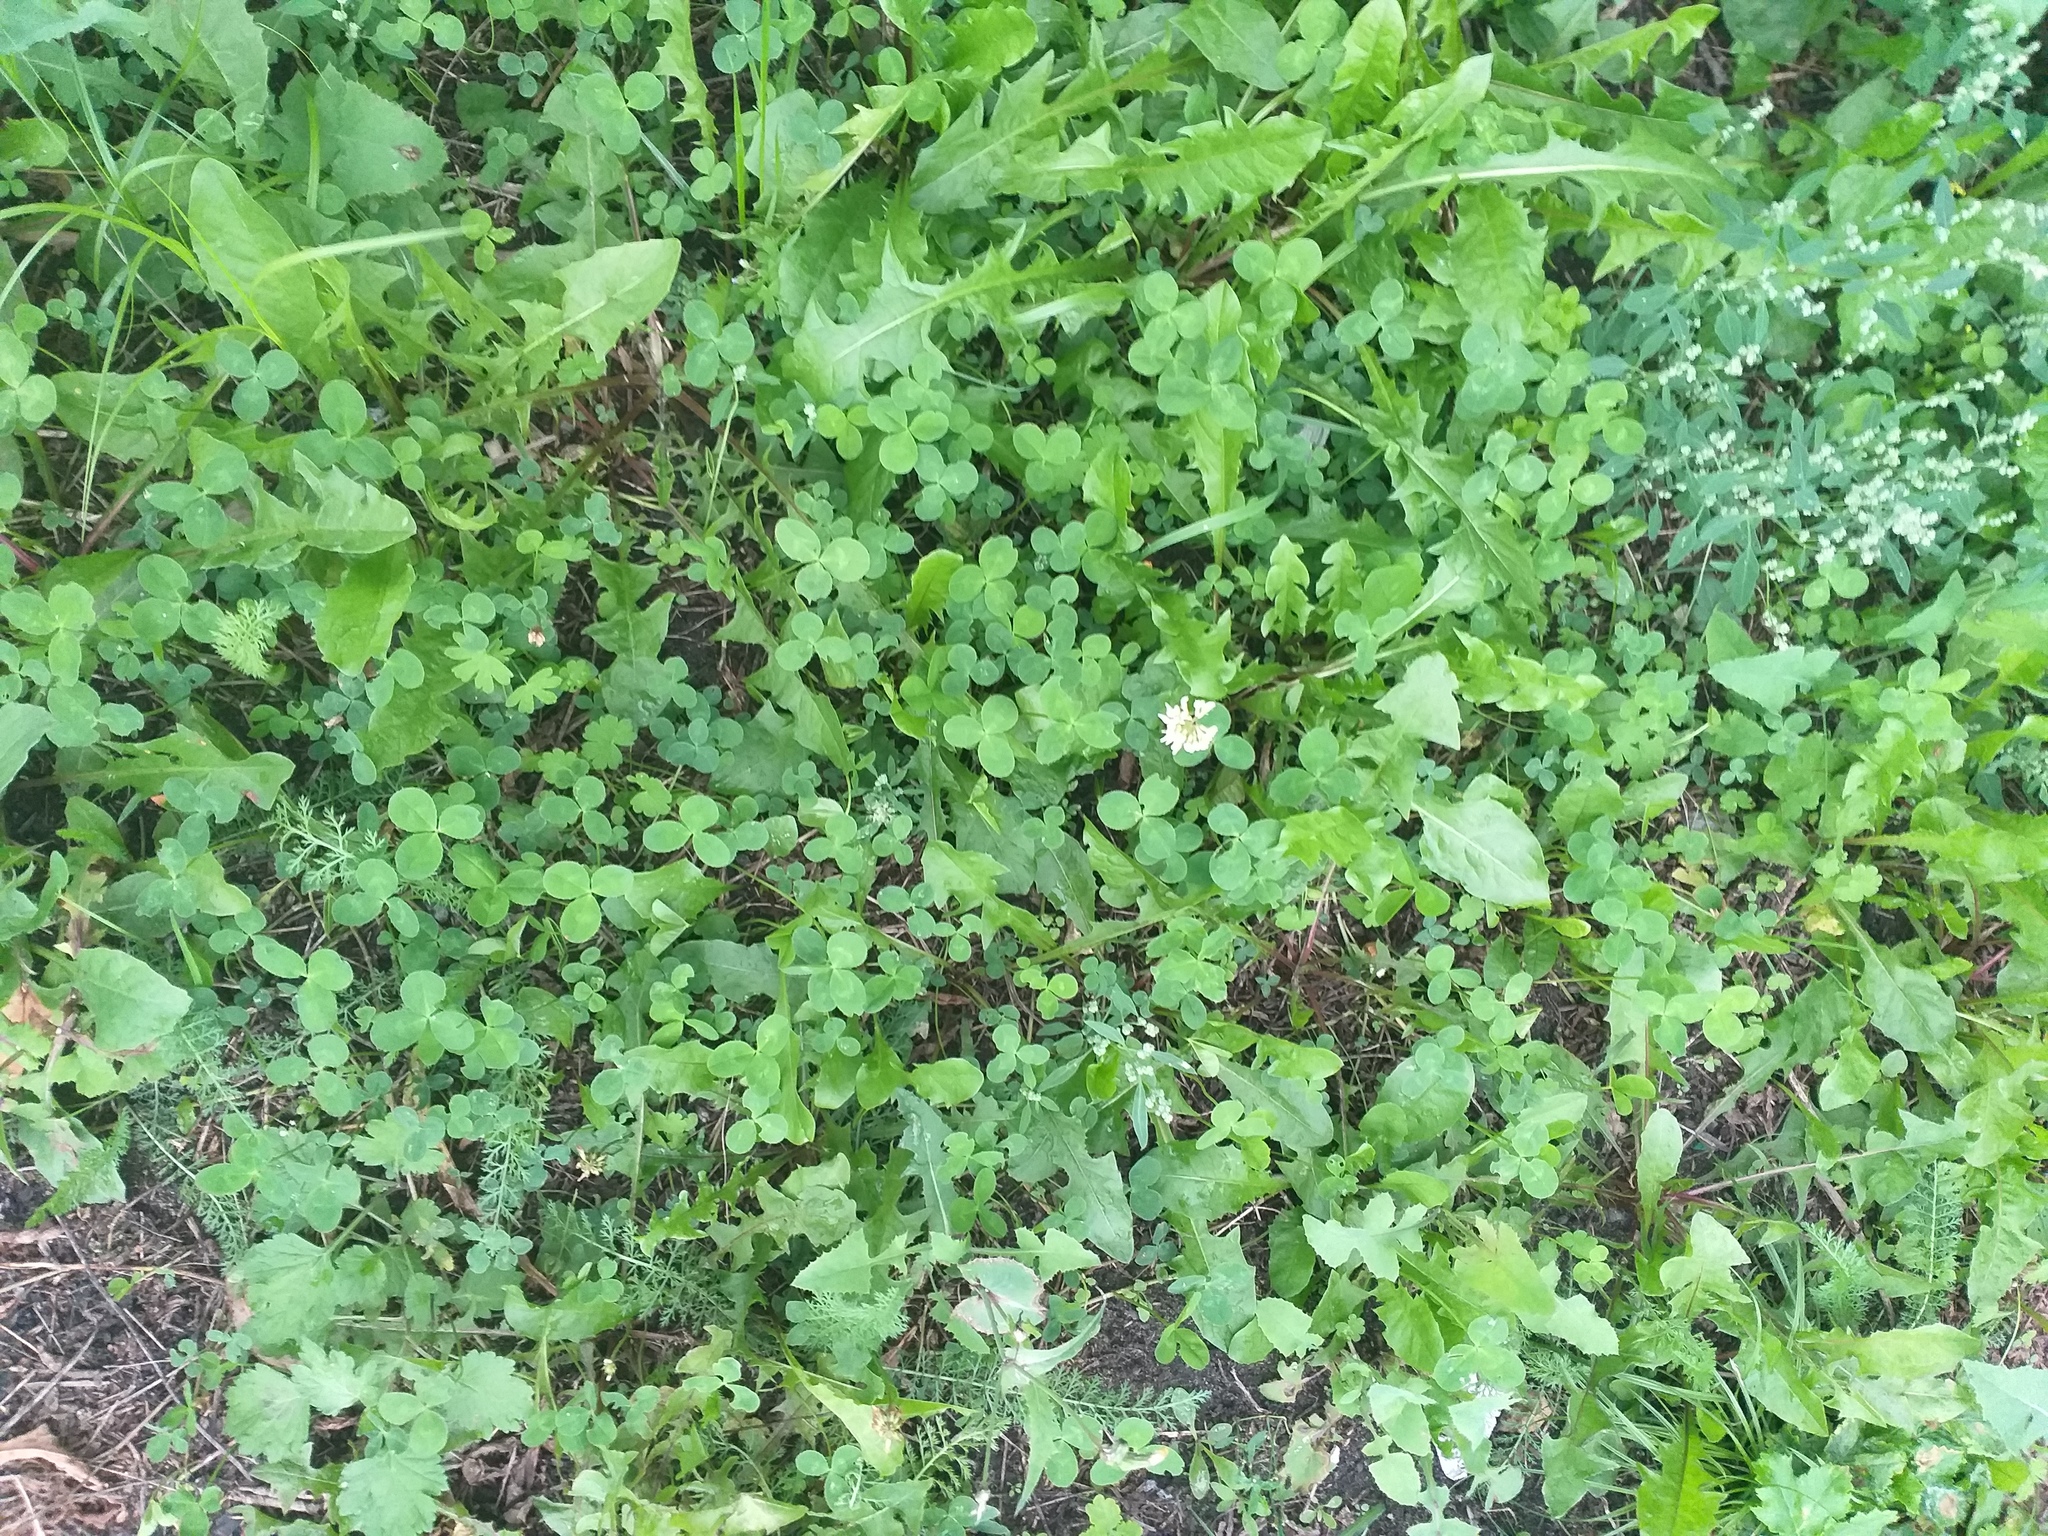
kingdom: Plantae
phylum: Tracheophyta
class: Magnoliopsida
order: Fabales
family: Fabaceae
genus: Trifolium
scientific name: Trifolium repens
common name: White clover
